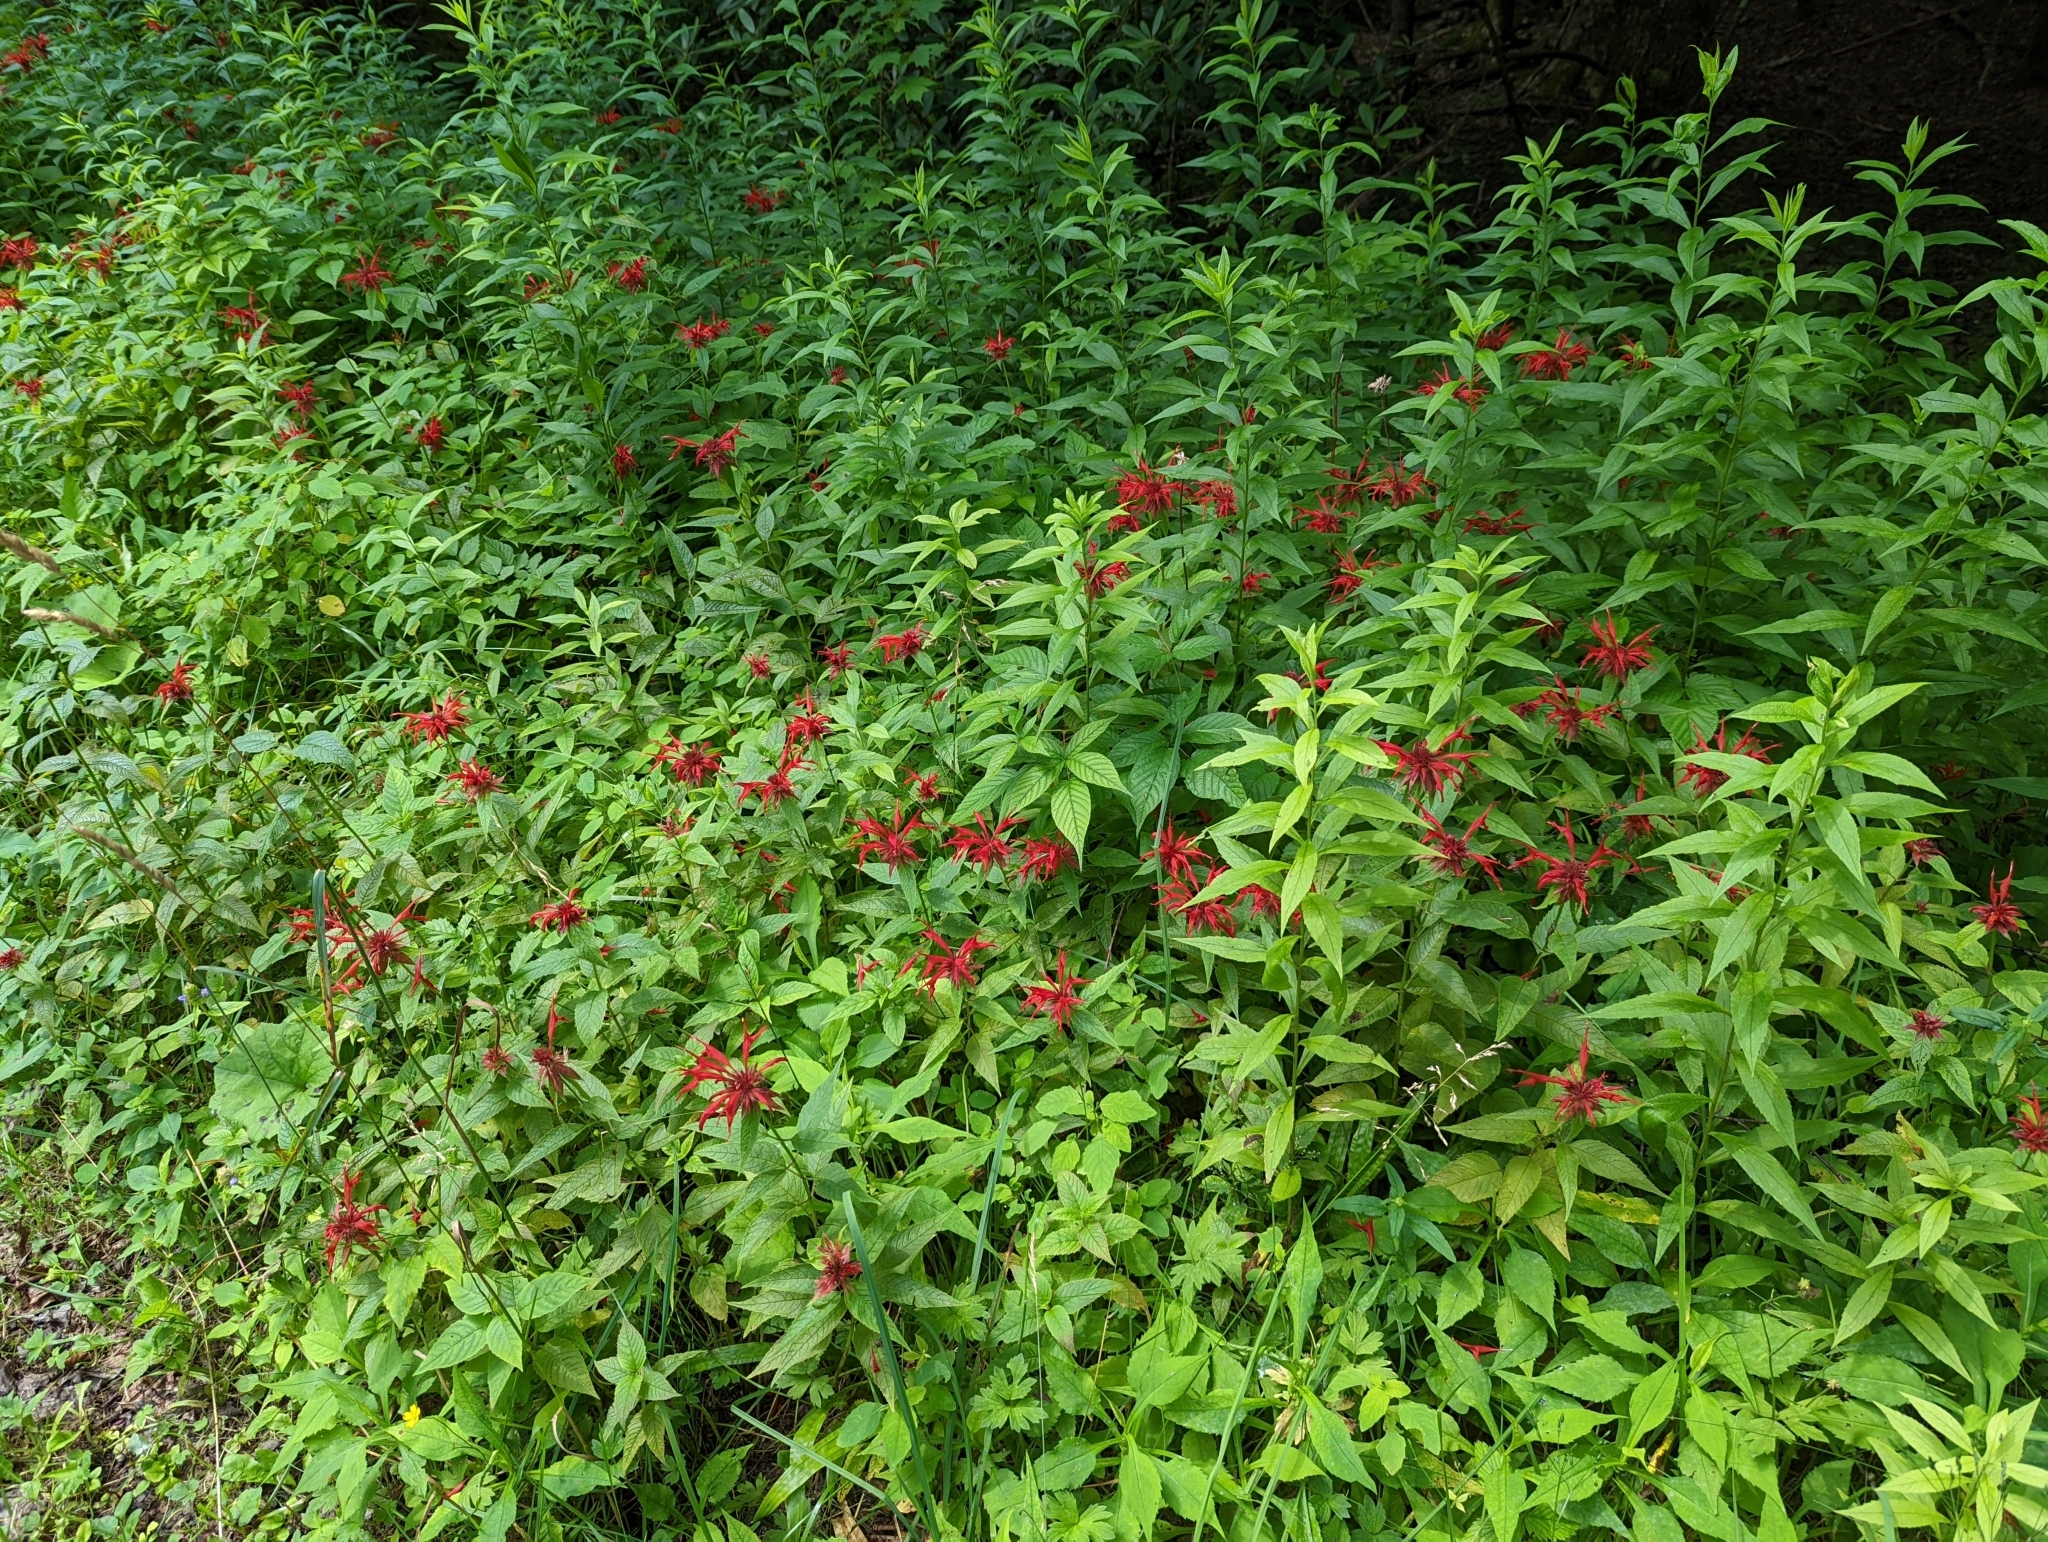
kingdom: Plantae
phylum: Tracheophyta
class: Magnoliopsida
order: Lamiales
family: Lamiaceae
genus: Monarda
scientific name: Monarda didyma
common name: Beebalm
